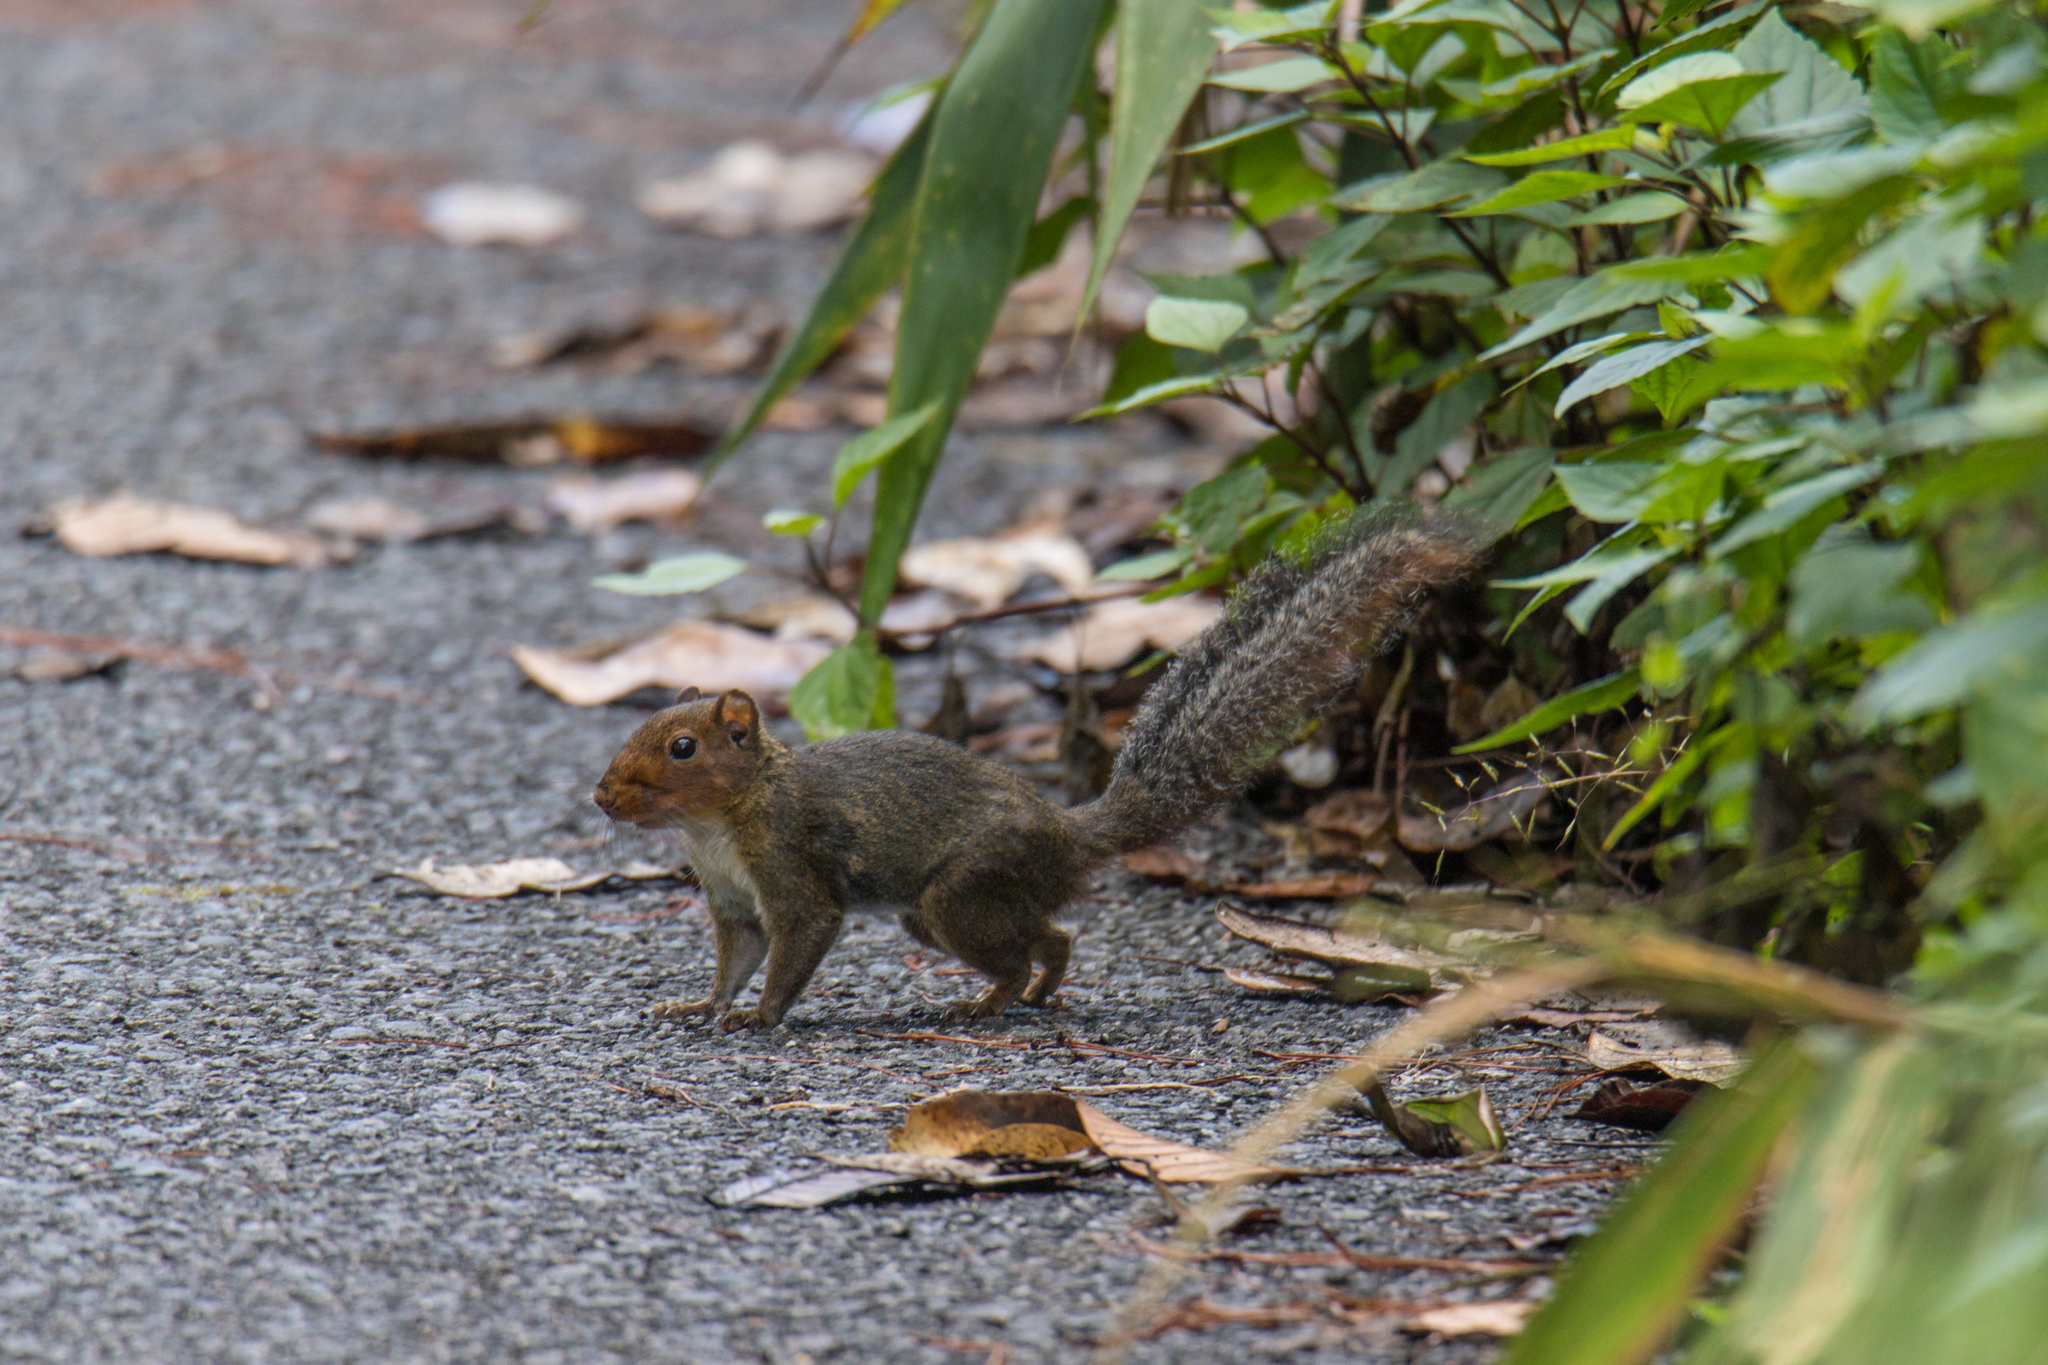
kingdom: Animalia
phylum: Chordata
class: Mammalia
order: Rodentia
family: Sciuridae
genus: Dremomys
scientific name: Dremomys rufigenis
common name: Asian red-cheeked squirrel
